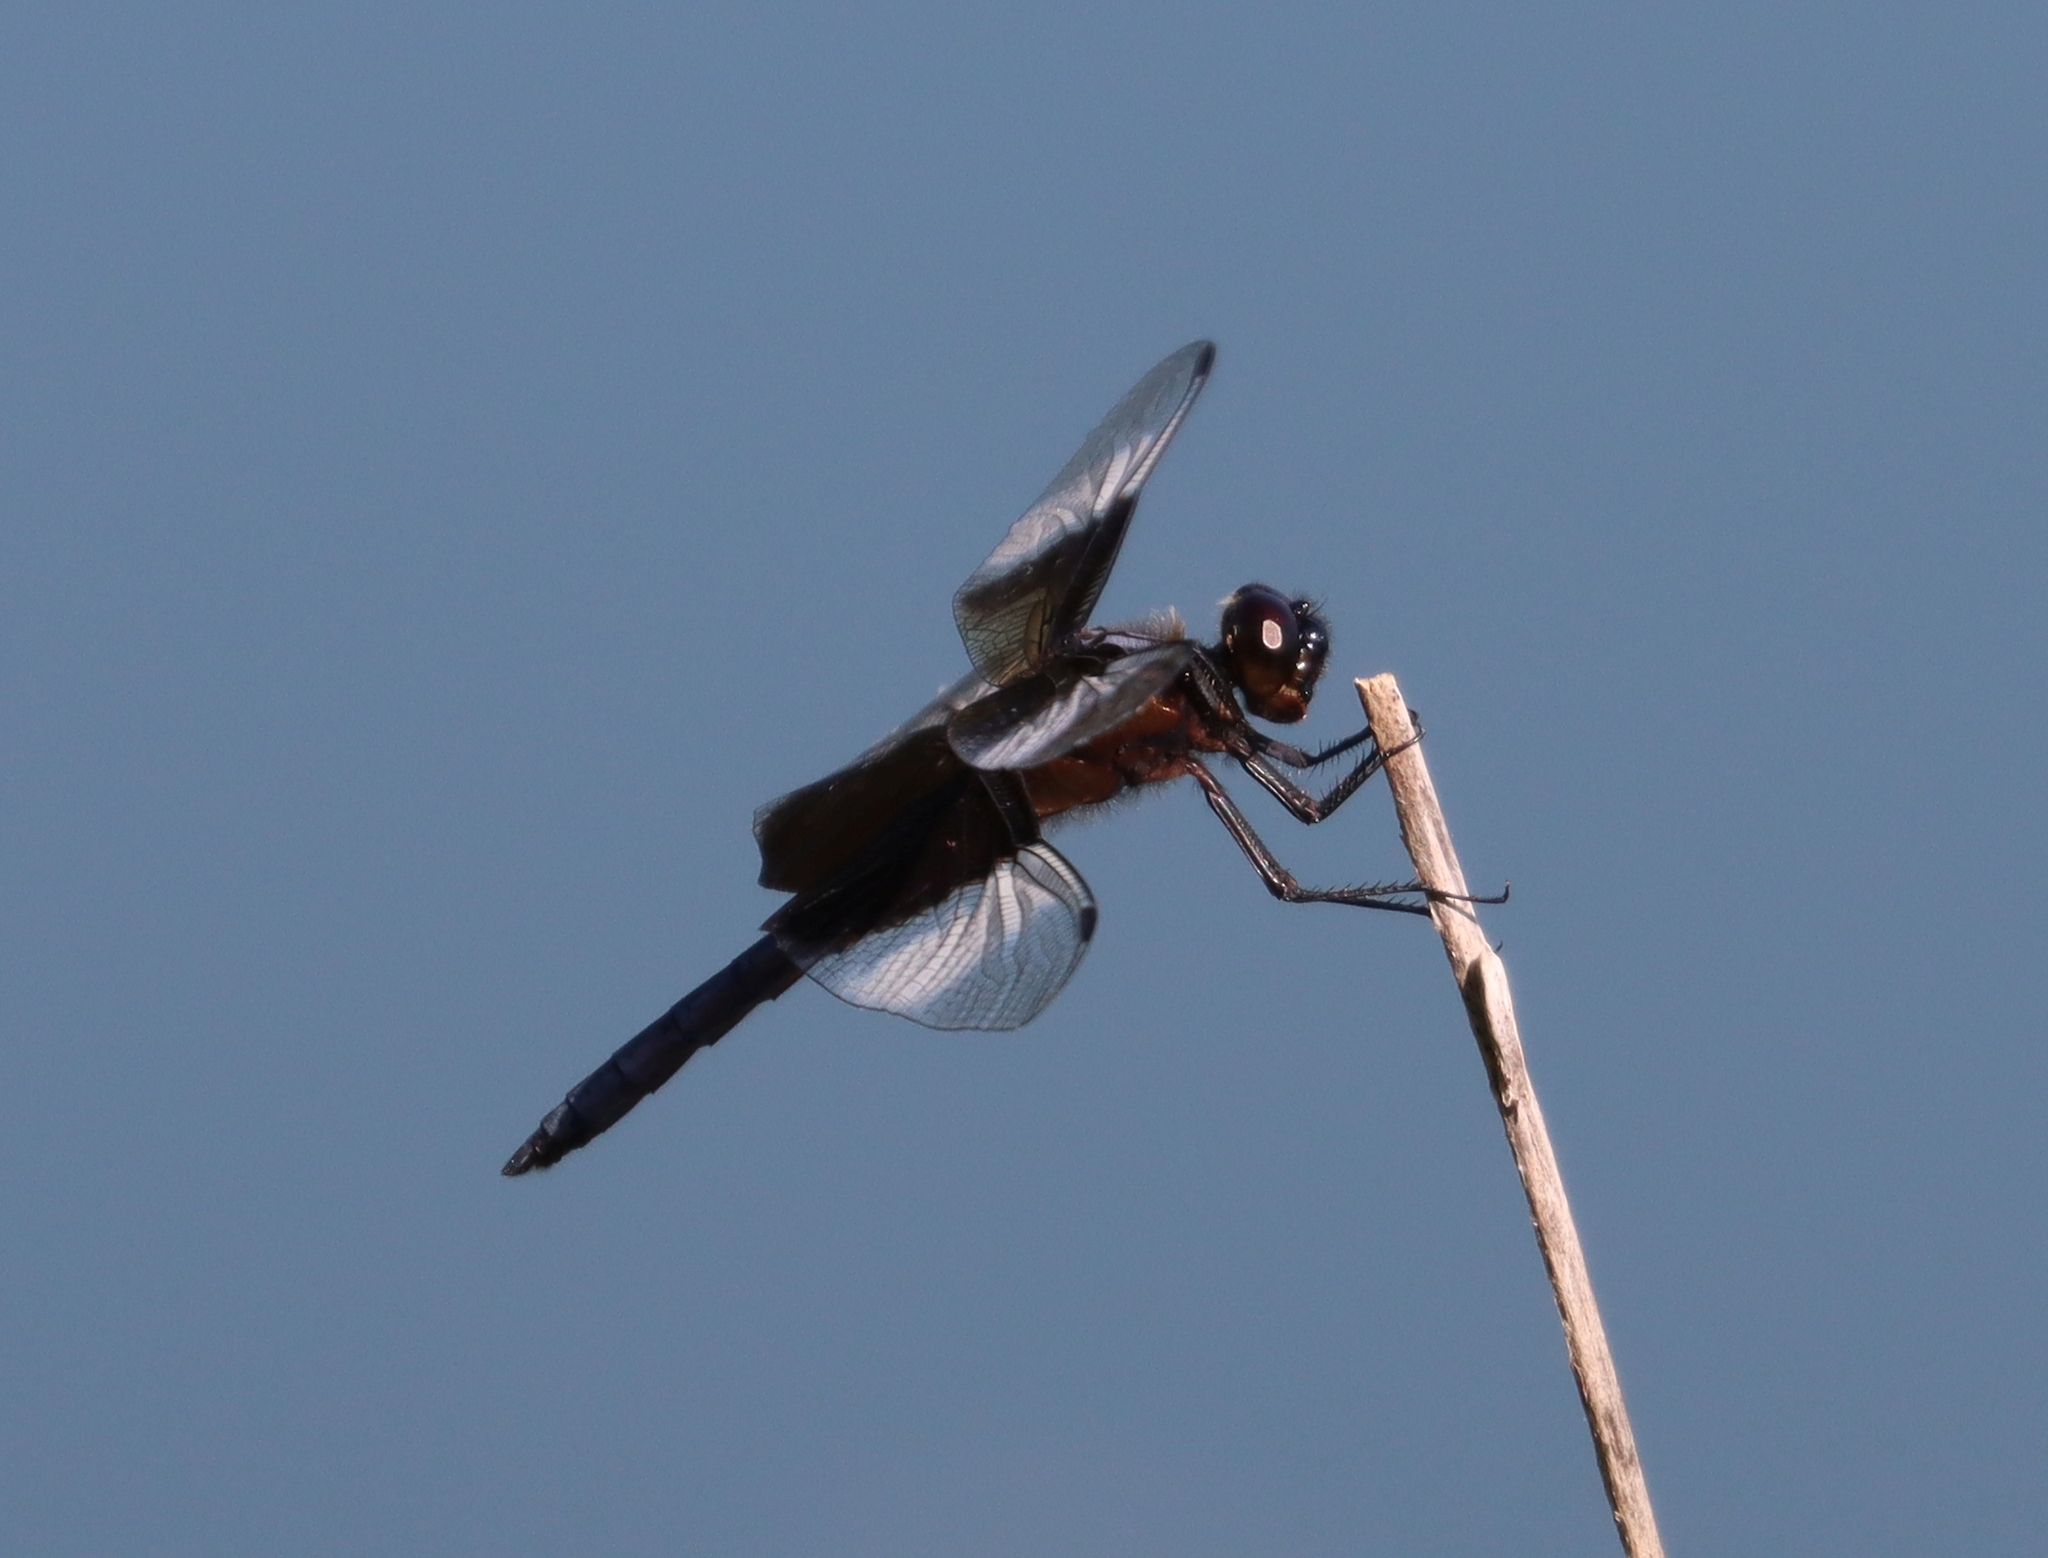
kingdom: Animalia
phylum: Arthropoda
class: Insecta
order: Odonata
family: Libellulidae
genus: Libellula
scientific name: Libellula luctuosa
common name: Widow skimmer
